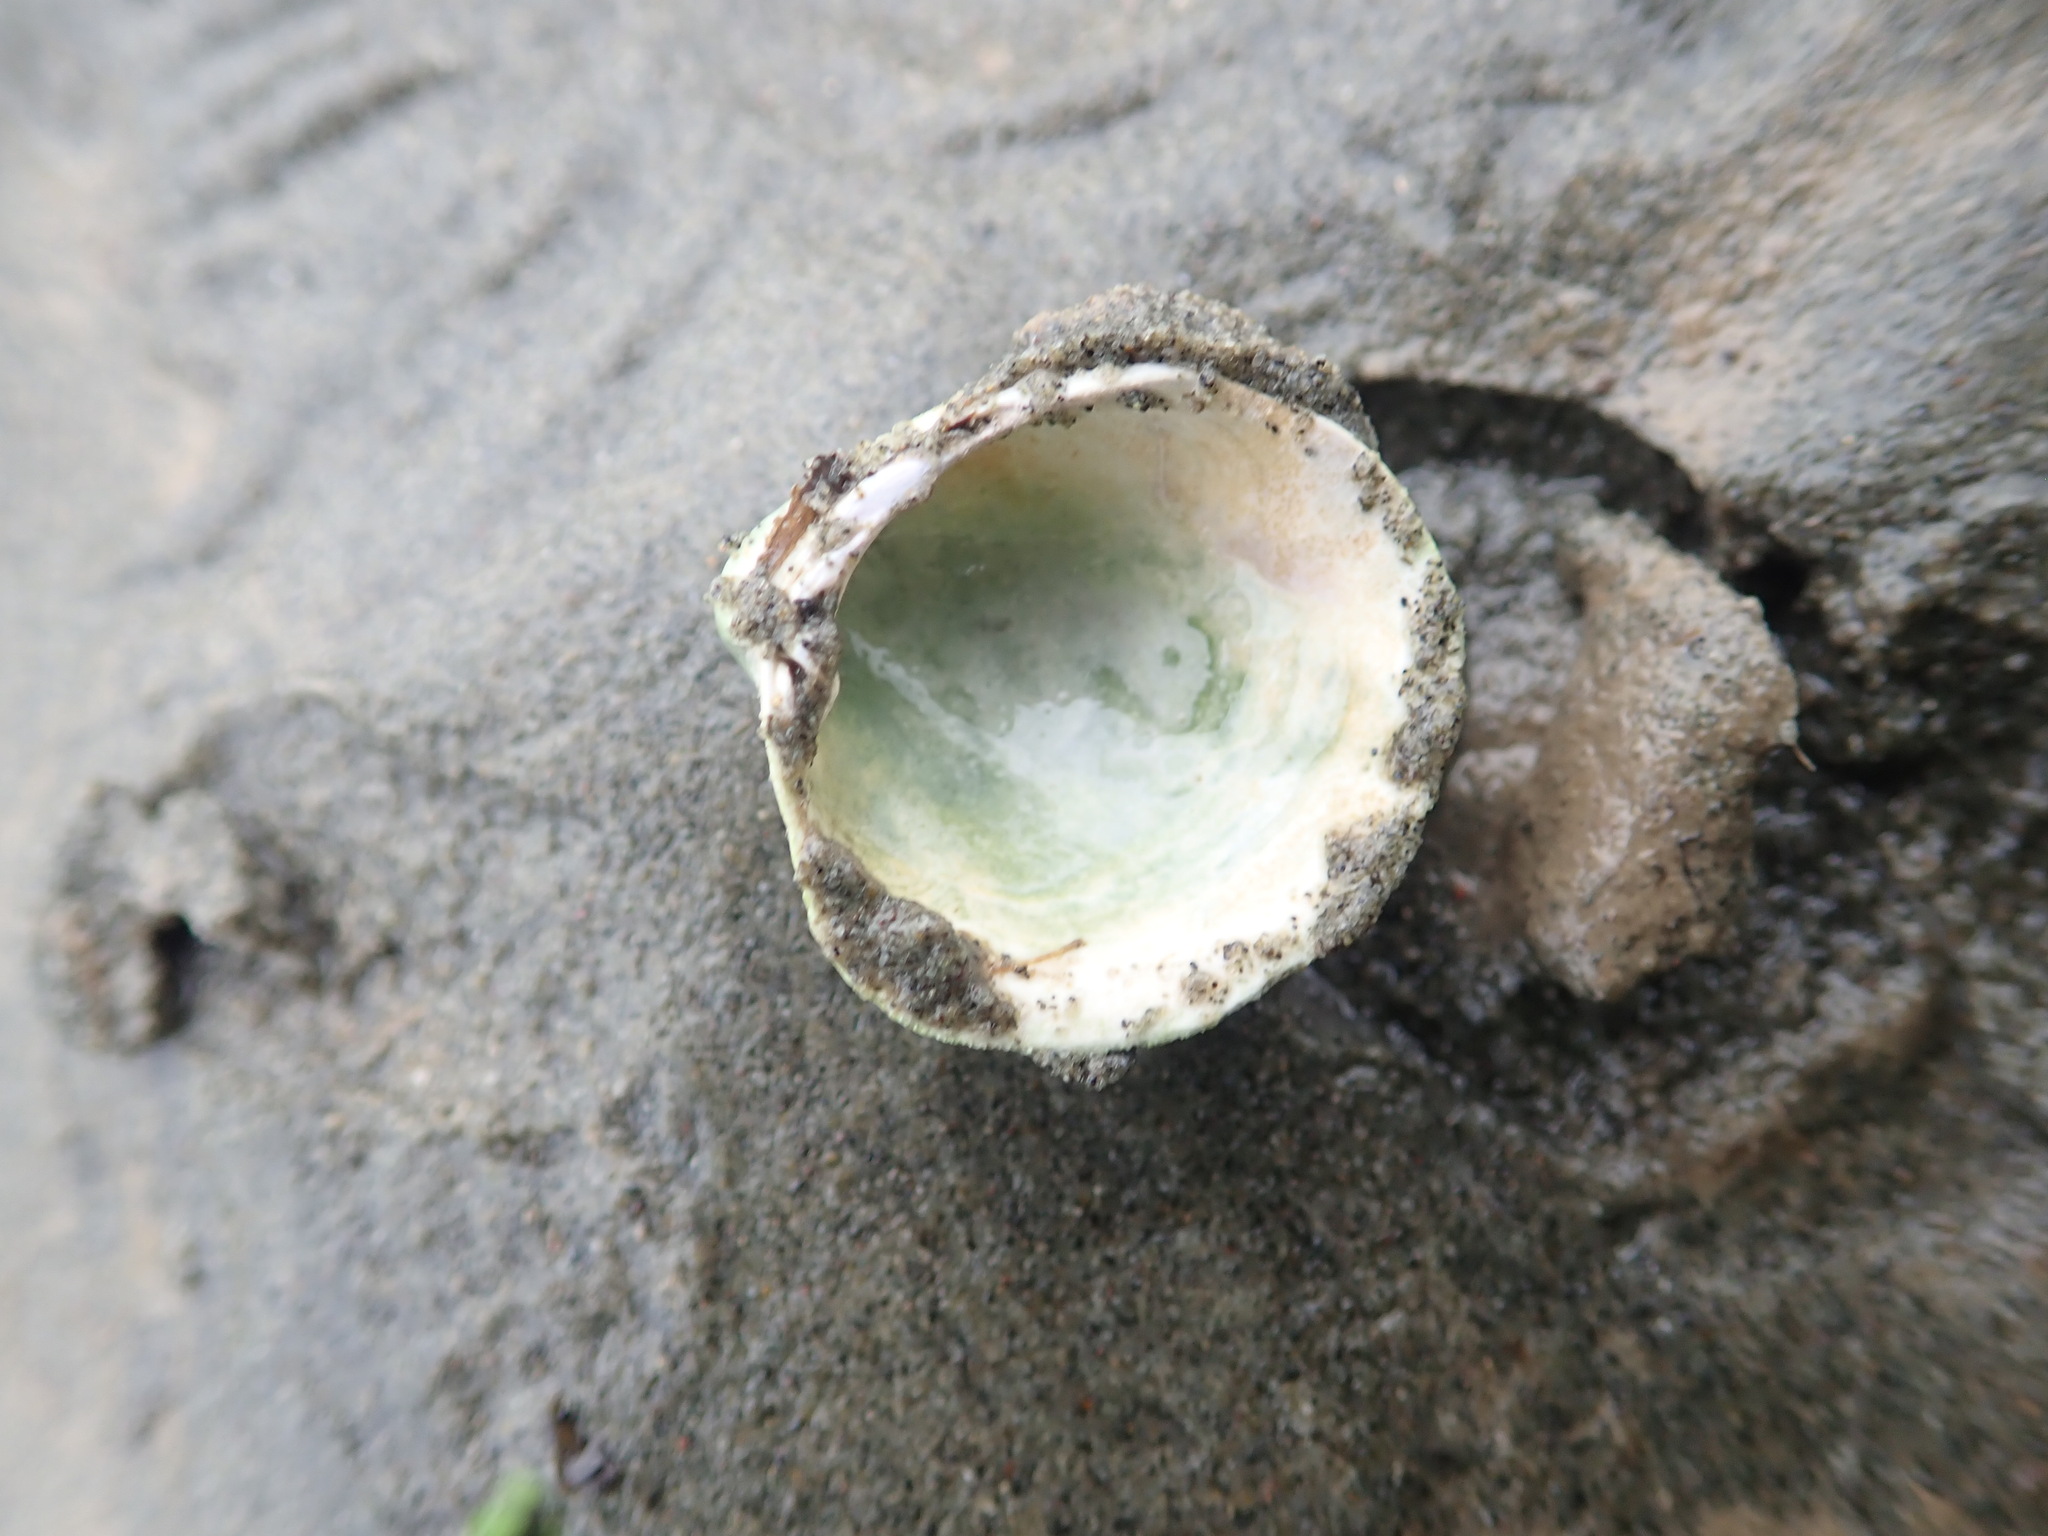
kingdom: Animalia
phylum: Mollusca
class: Bivalvia
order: Venerida
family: Veneridae
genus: Austrovenus
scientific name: Austrovenus stutchburyi
